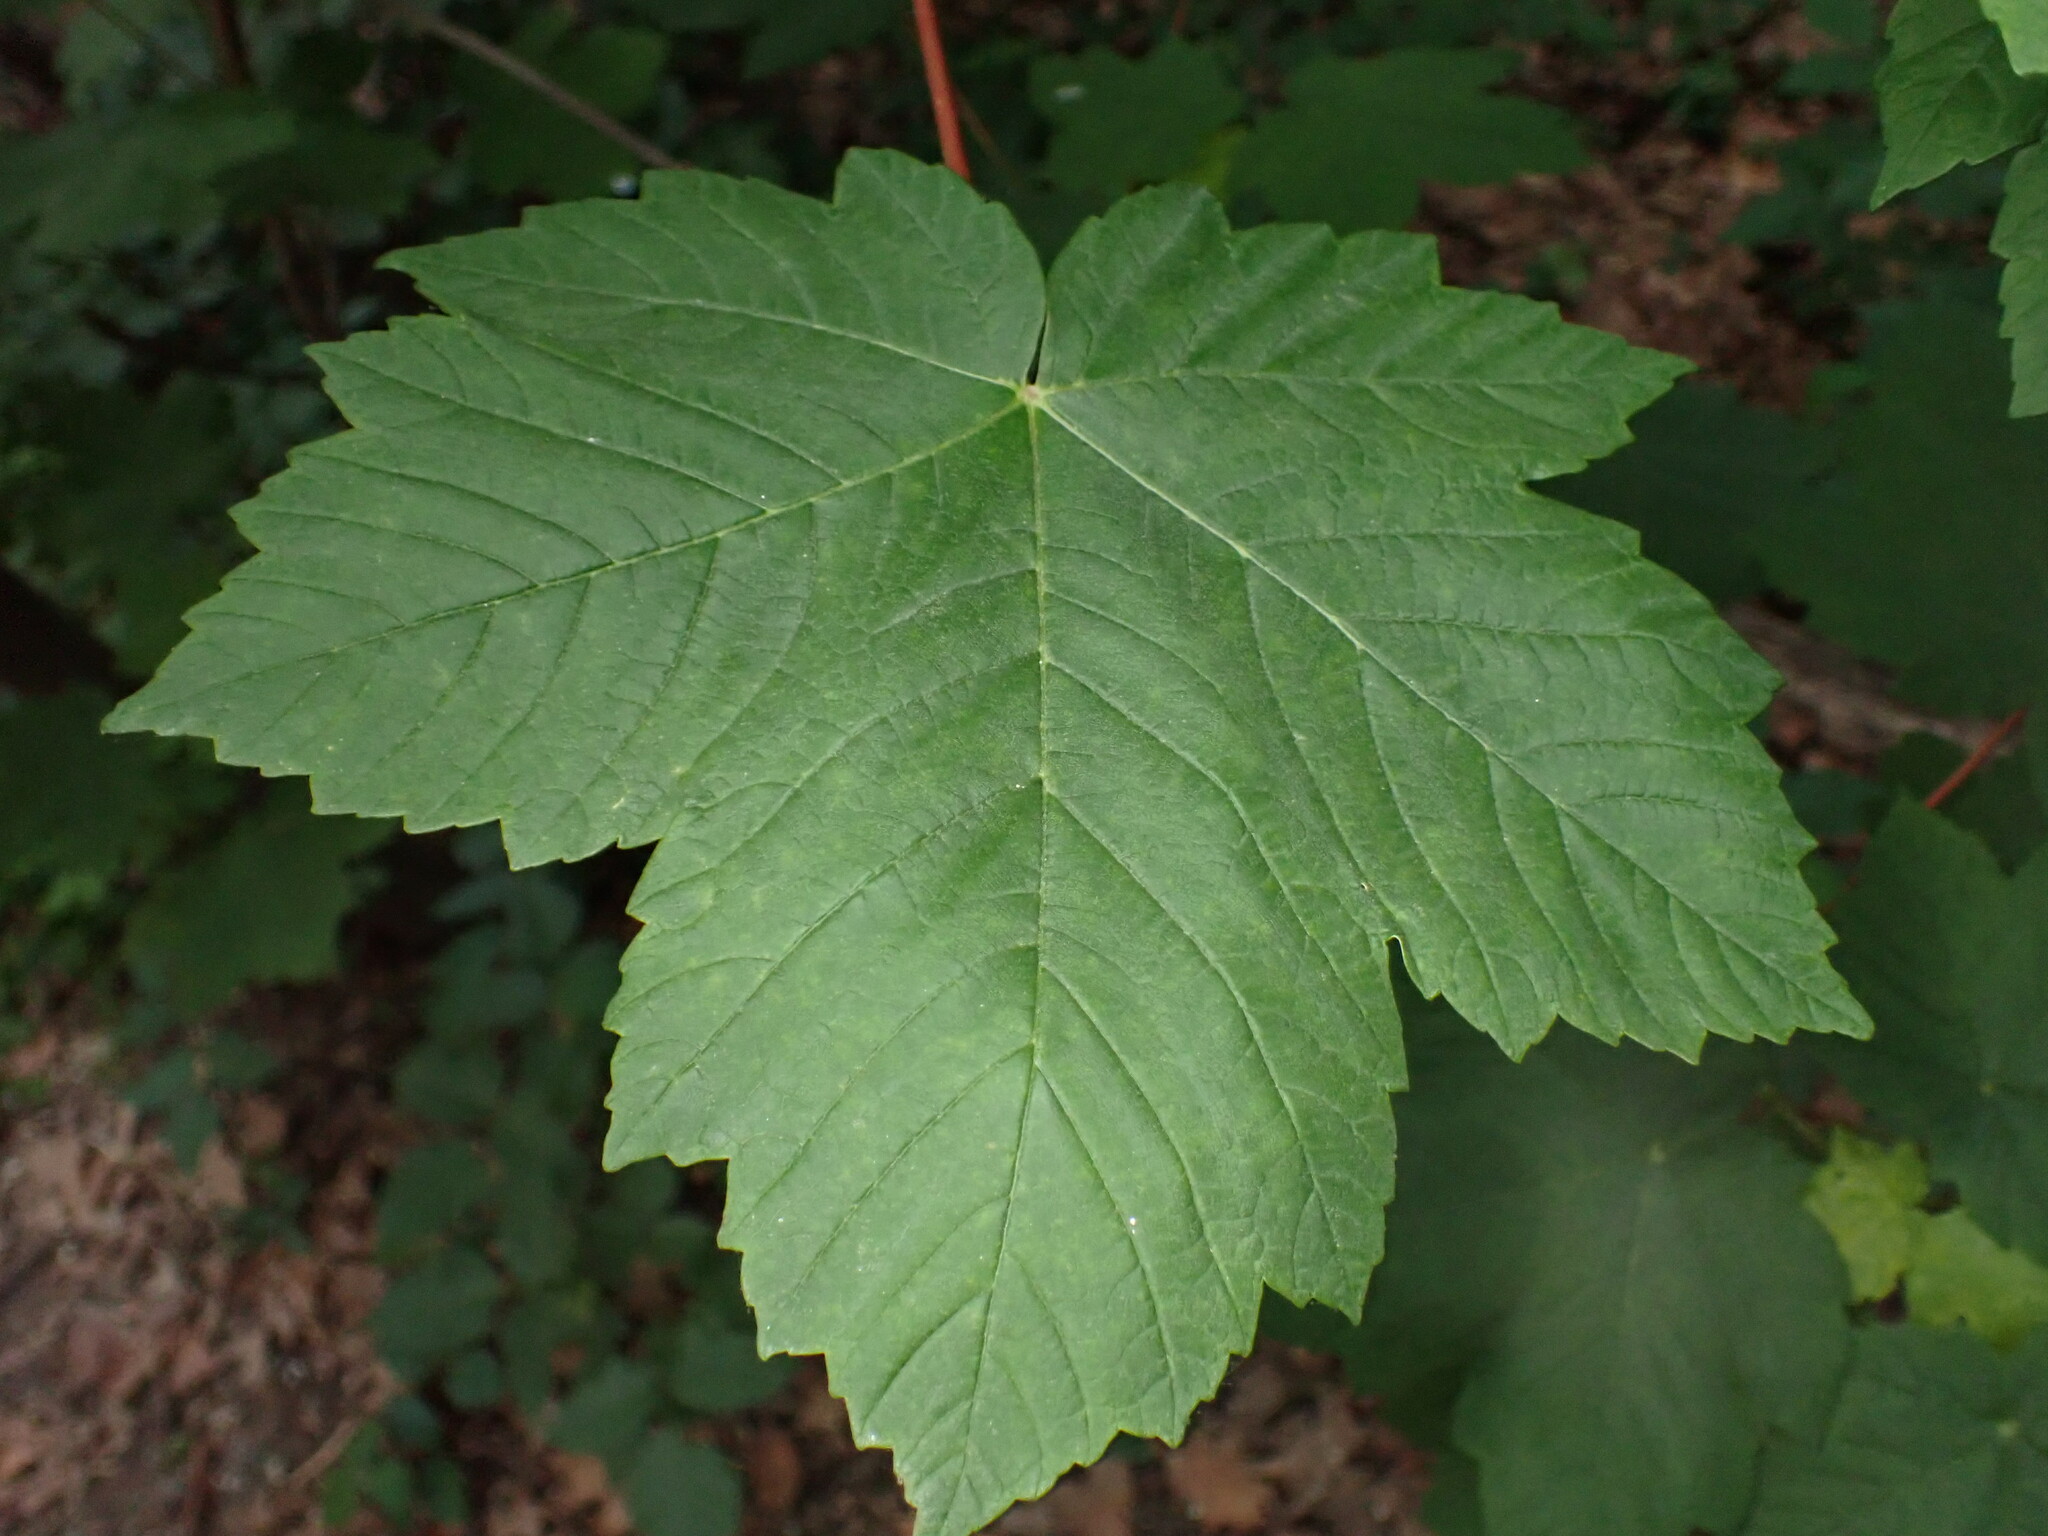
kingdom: Plantae
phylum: Tracheophyta
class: Magnoliopsida
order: Sapindales
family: Sapindaceae
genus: Acer
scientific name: Acer pseudoplatanus
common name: Sycamore
